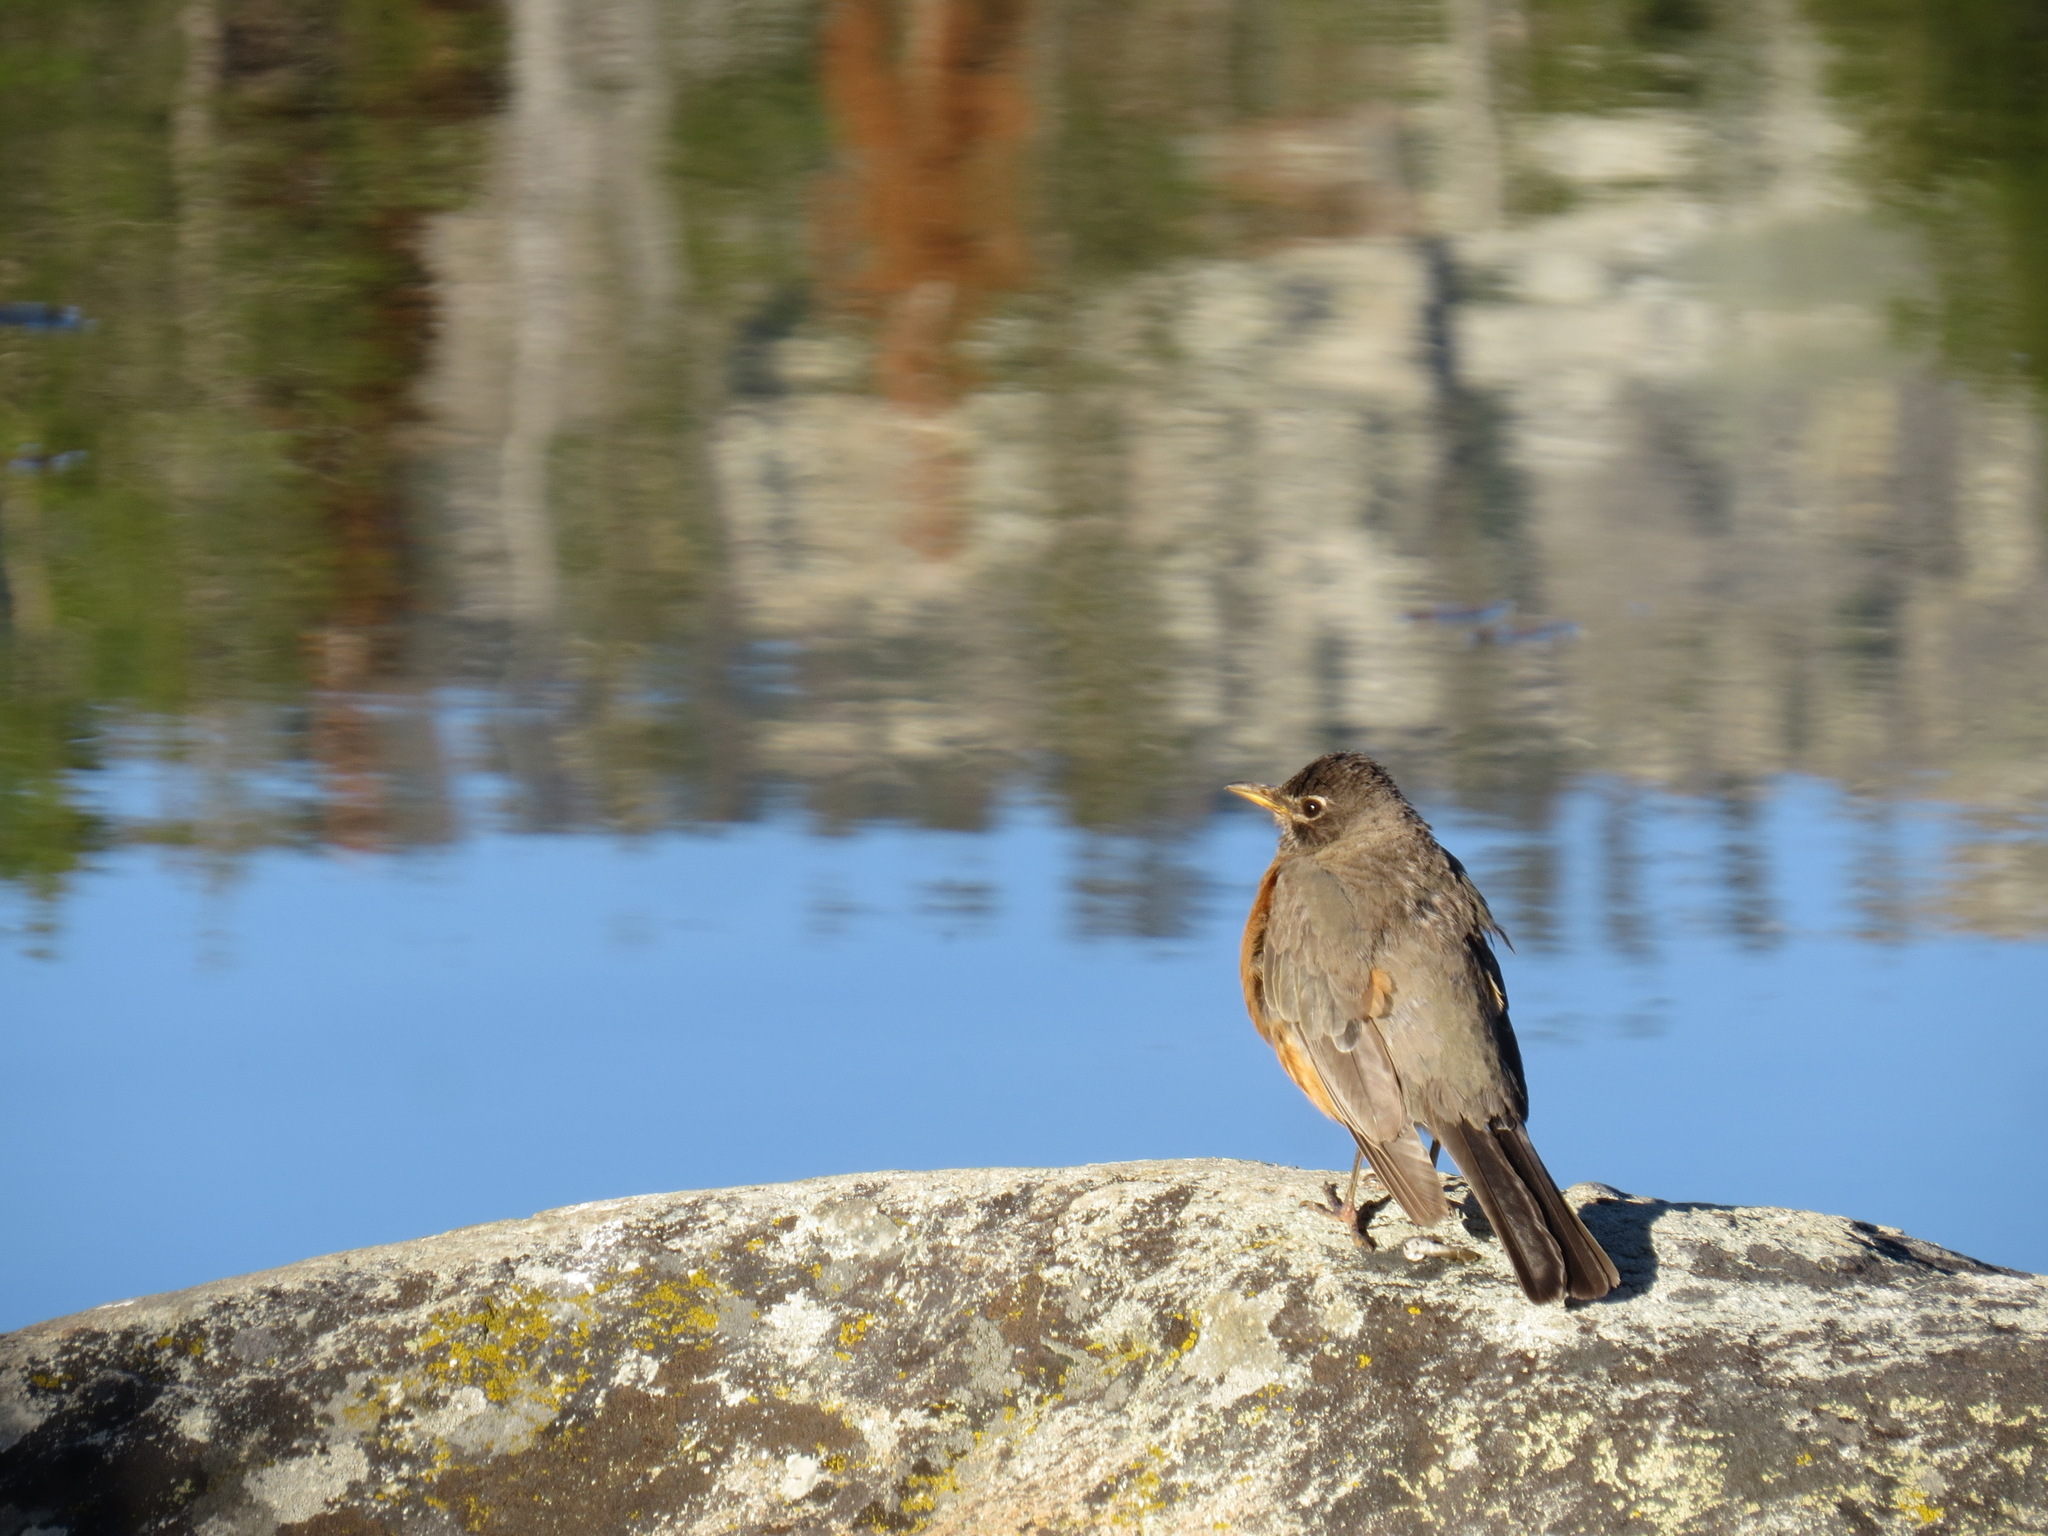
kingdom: Animalia
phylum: Chordata
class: Aves
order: Passeriformes
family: Turdidae
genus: Turdus
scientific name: Turdus migratorius
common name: American robin
